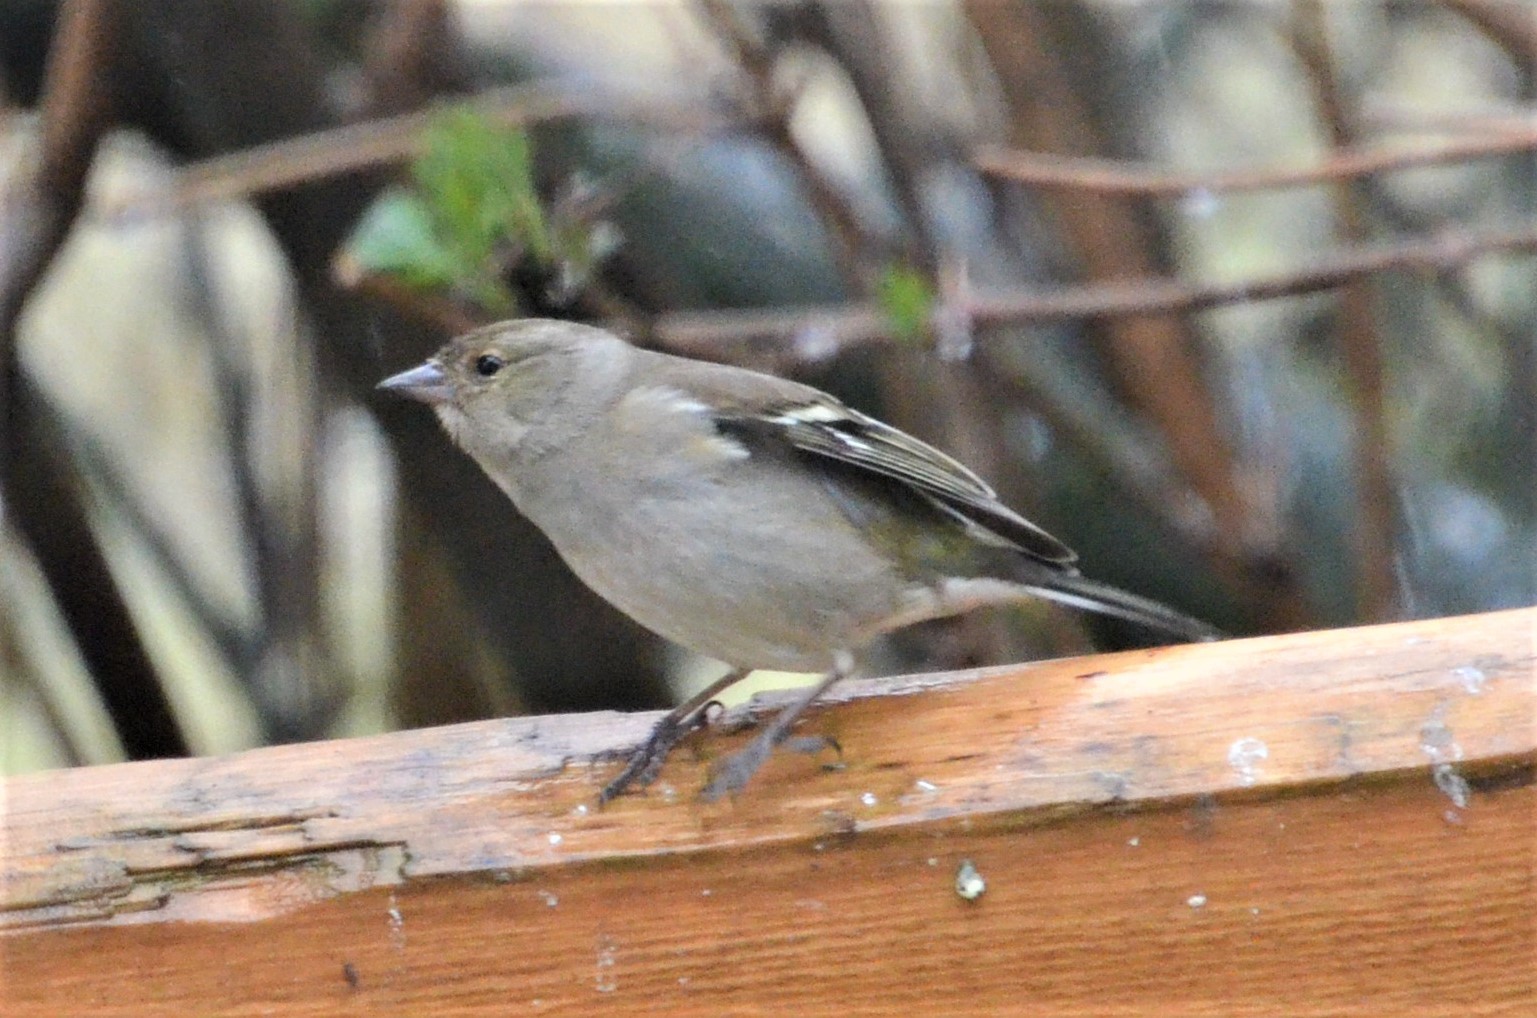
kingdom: Animalia
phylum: Chordata
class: Aves
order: Passeriformes
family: Fringillidae
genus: Fringilla
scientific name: Fringilla coelebs
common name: Common chaffinch
